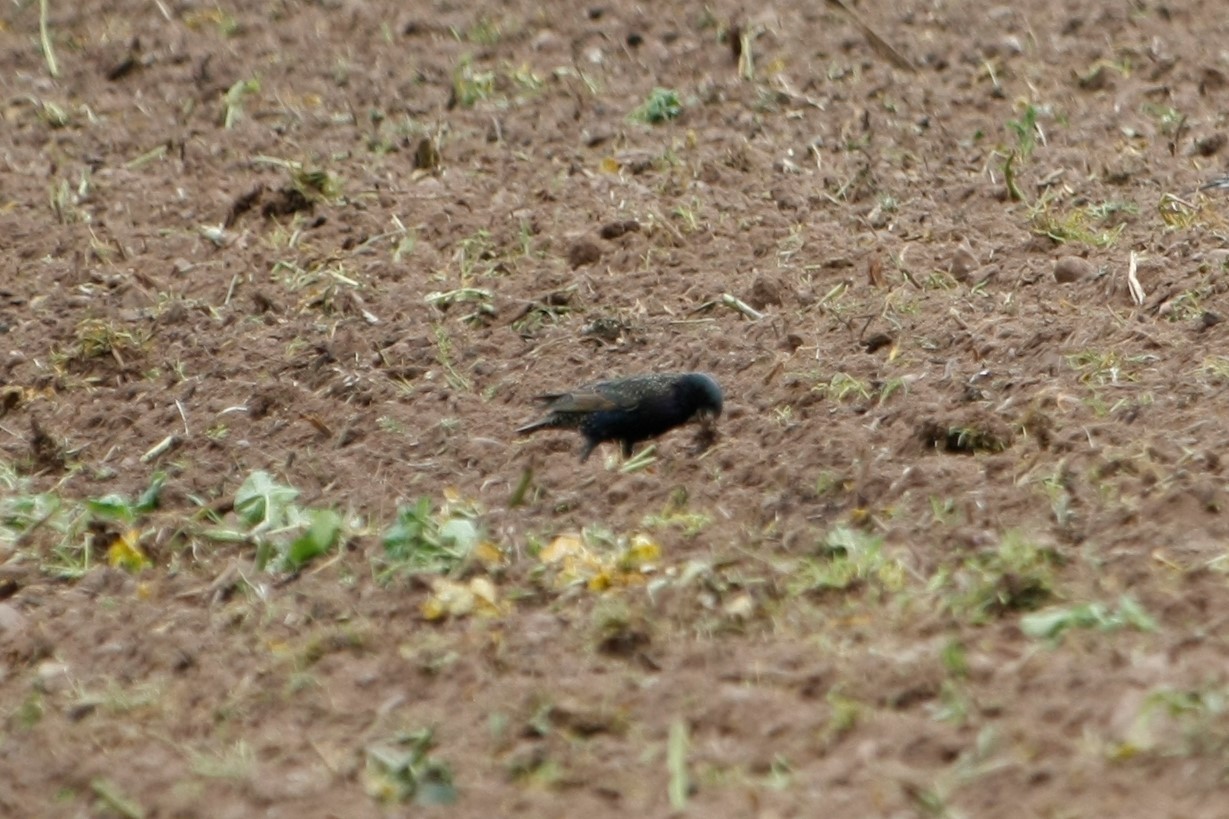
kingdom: Animalia
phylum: Chordata
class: Aves
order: Passeriformes
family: Sturnidae
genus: Sturnus
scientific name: Sturnus vulgaris
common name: Common starling
